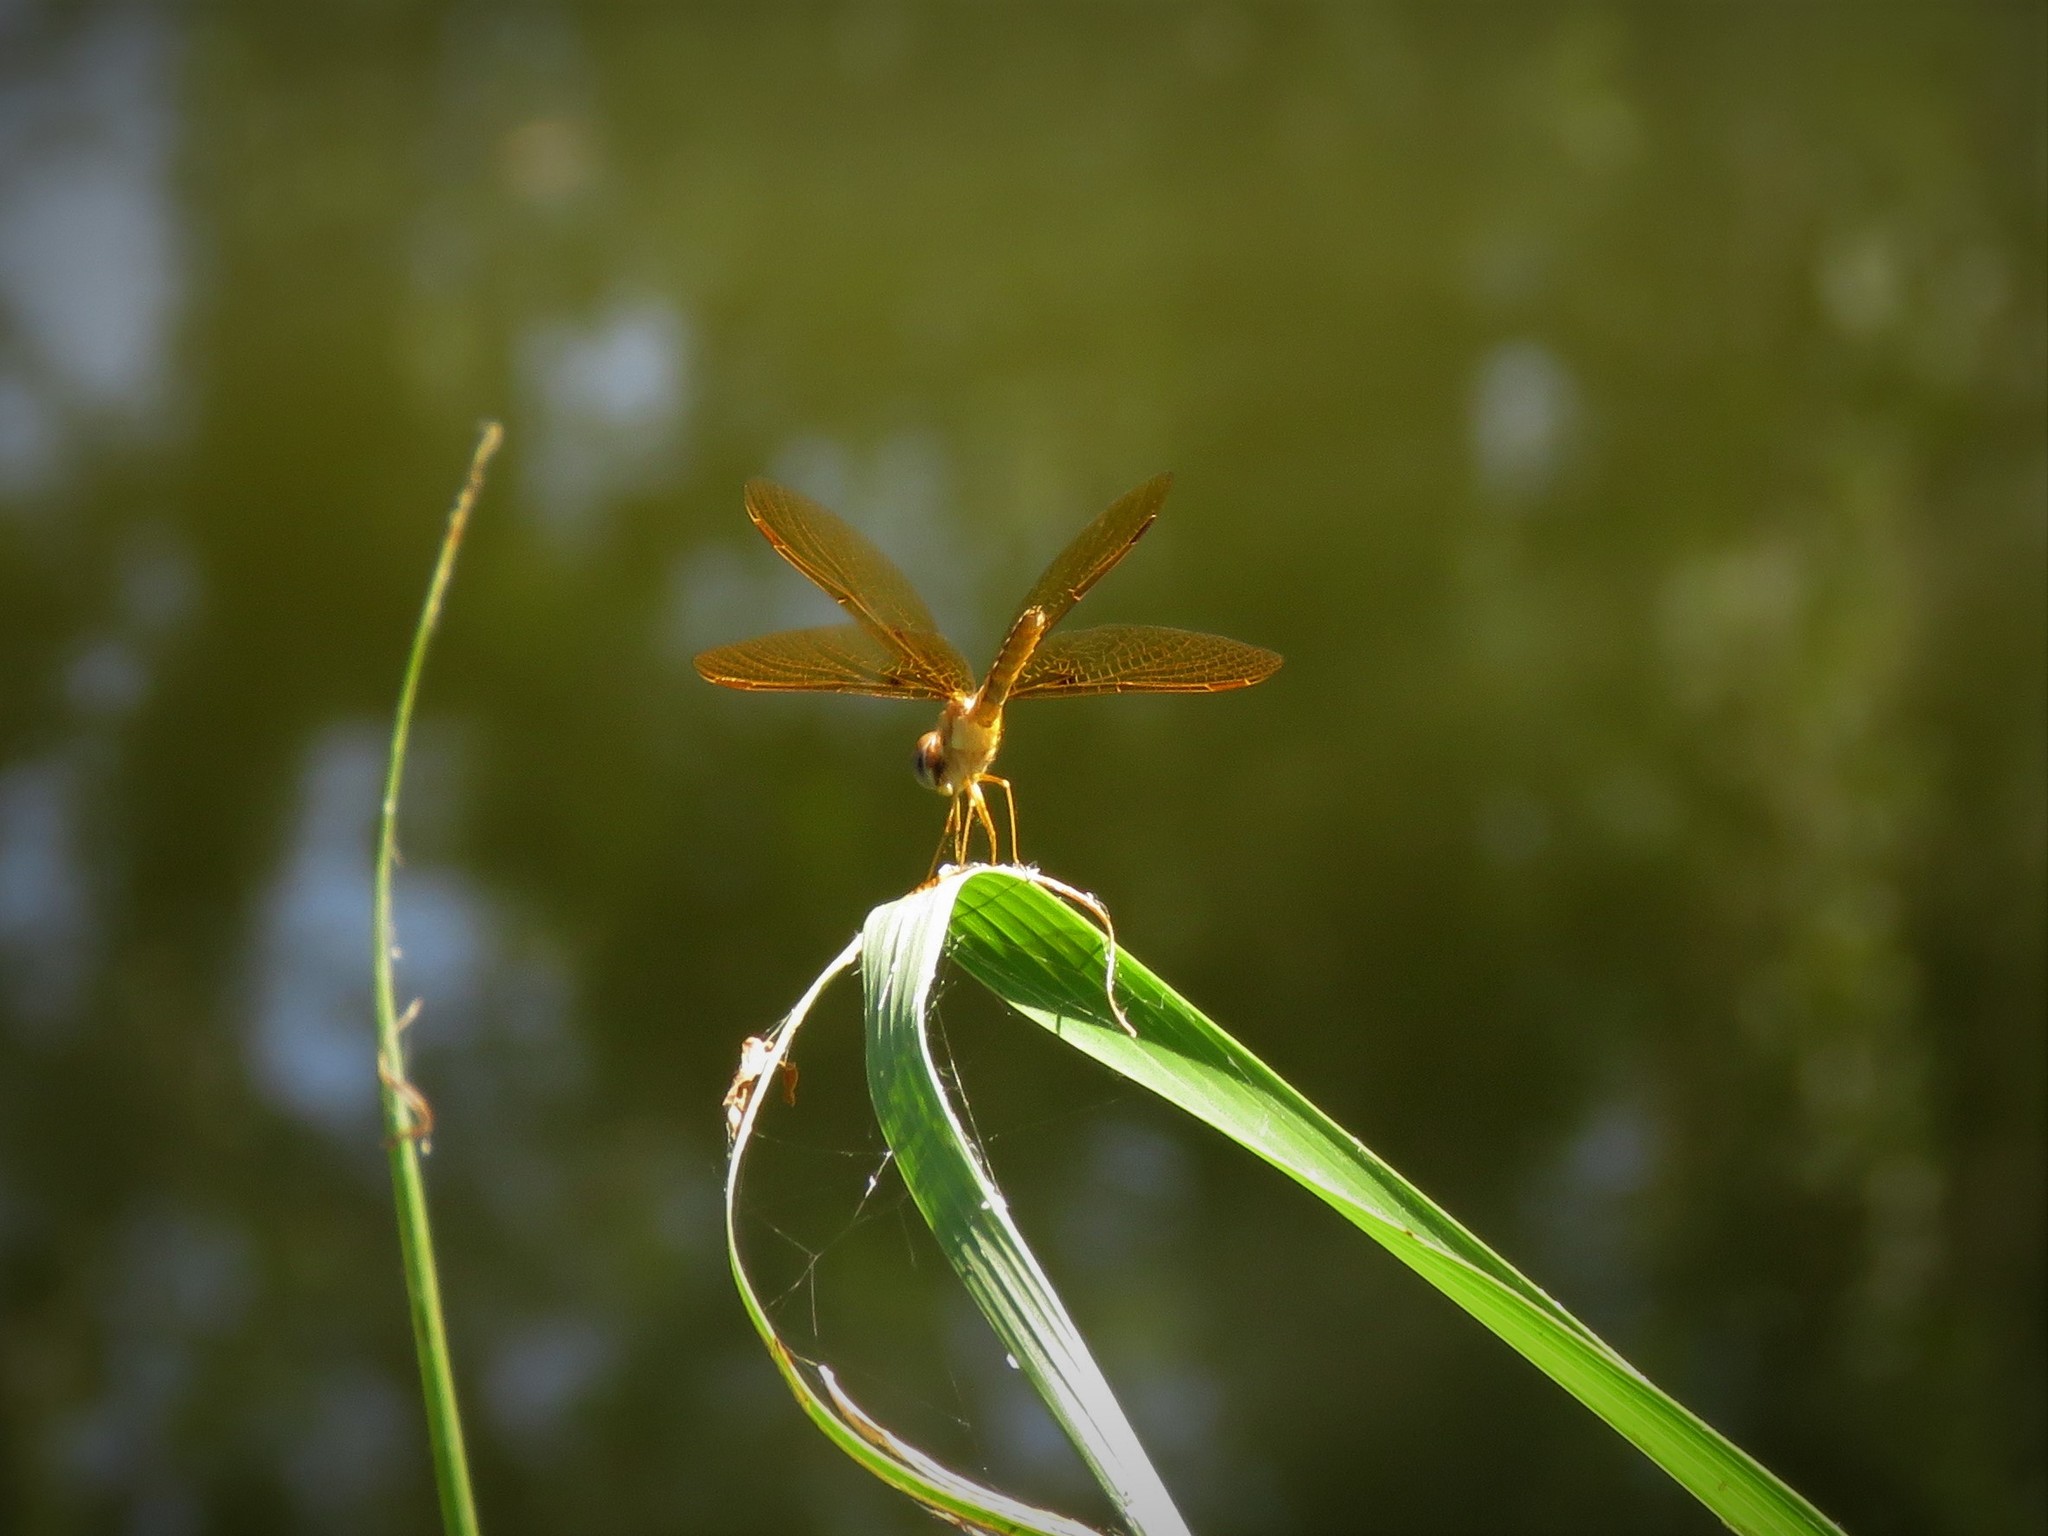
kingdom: Animalia
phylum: Arthropoda
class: Insecta
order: Odonata
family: Libellulidae
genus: Perithemis
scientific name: Perithemis tenera
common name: Eastern amberwing
